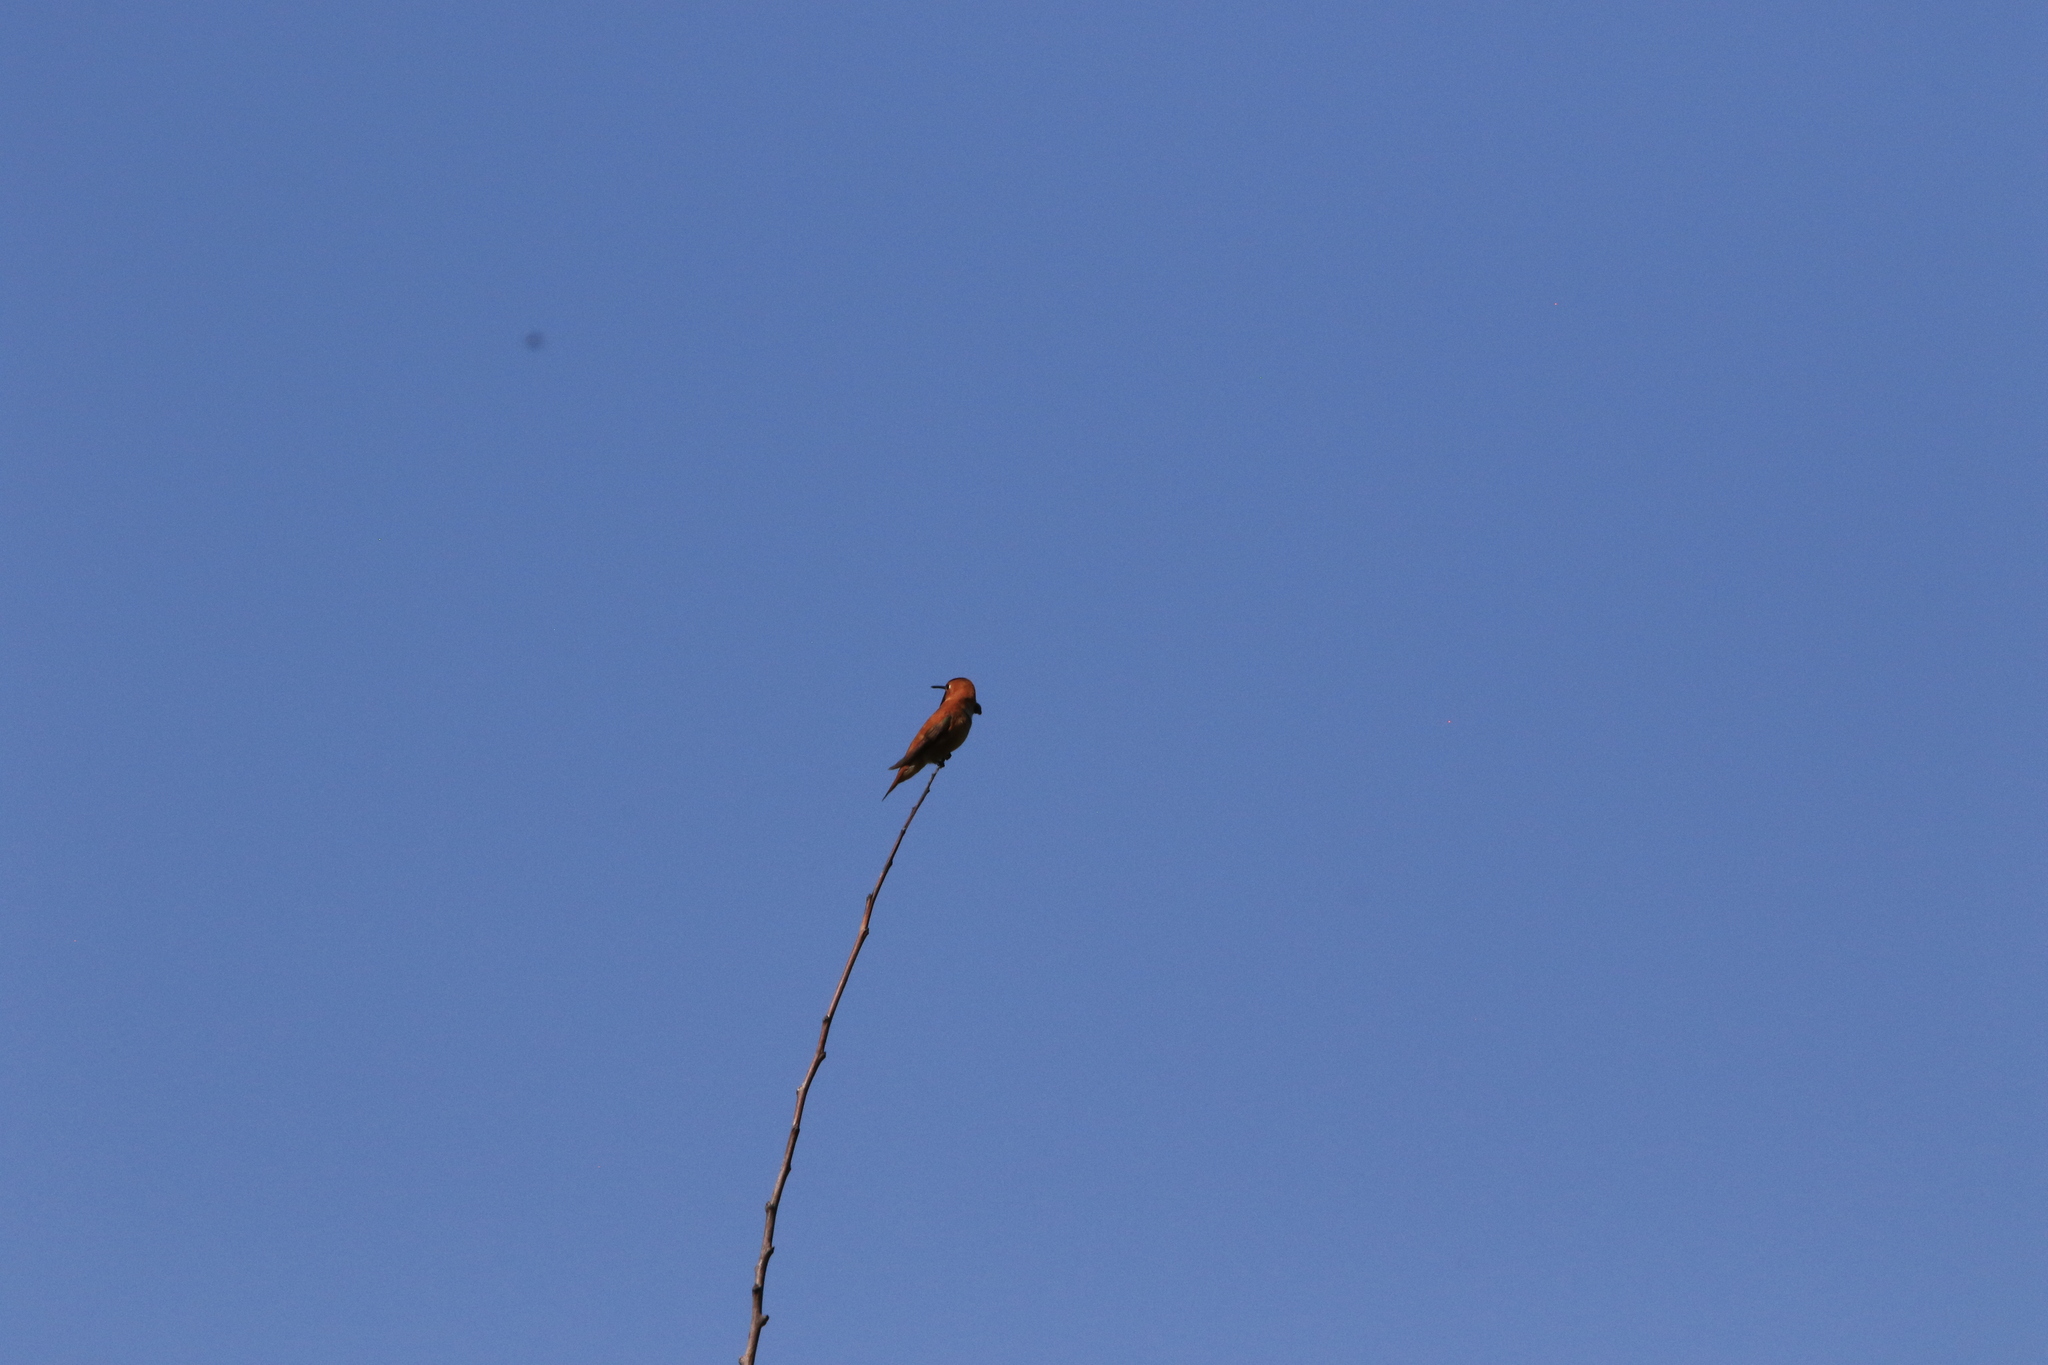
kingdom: Animalia
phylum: Chordata
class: Aves
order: Apodiformes
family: Trochilidae
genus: Selasphorus
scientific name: Selasphorus rufus
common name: Rufous hummingbird
